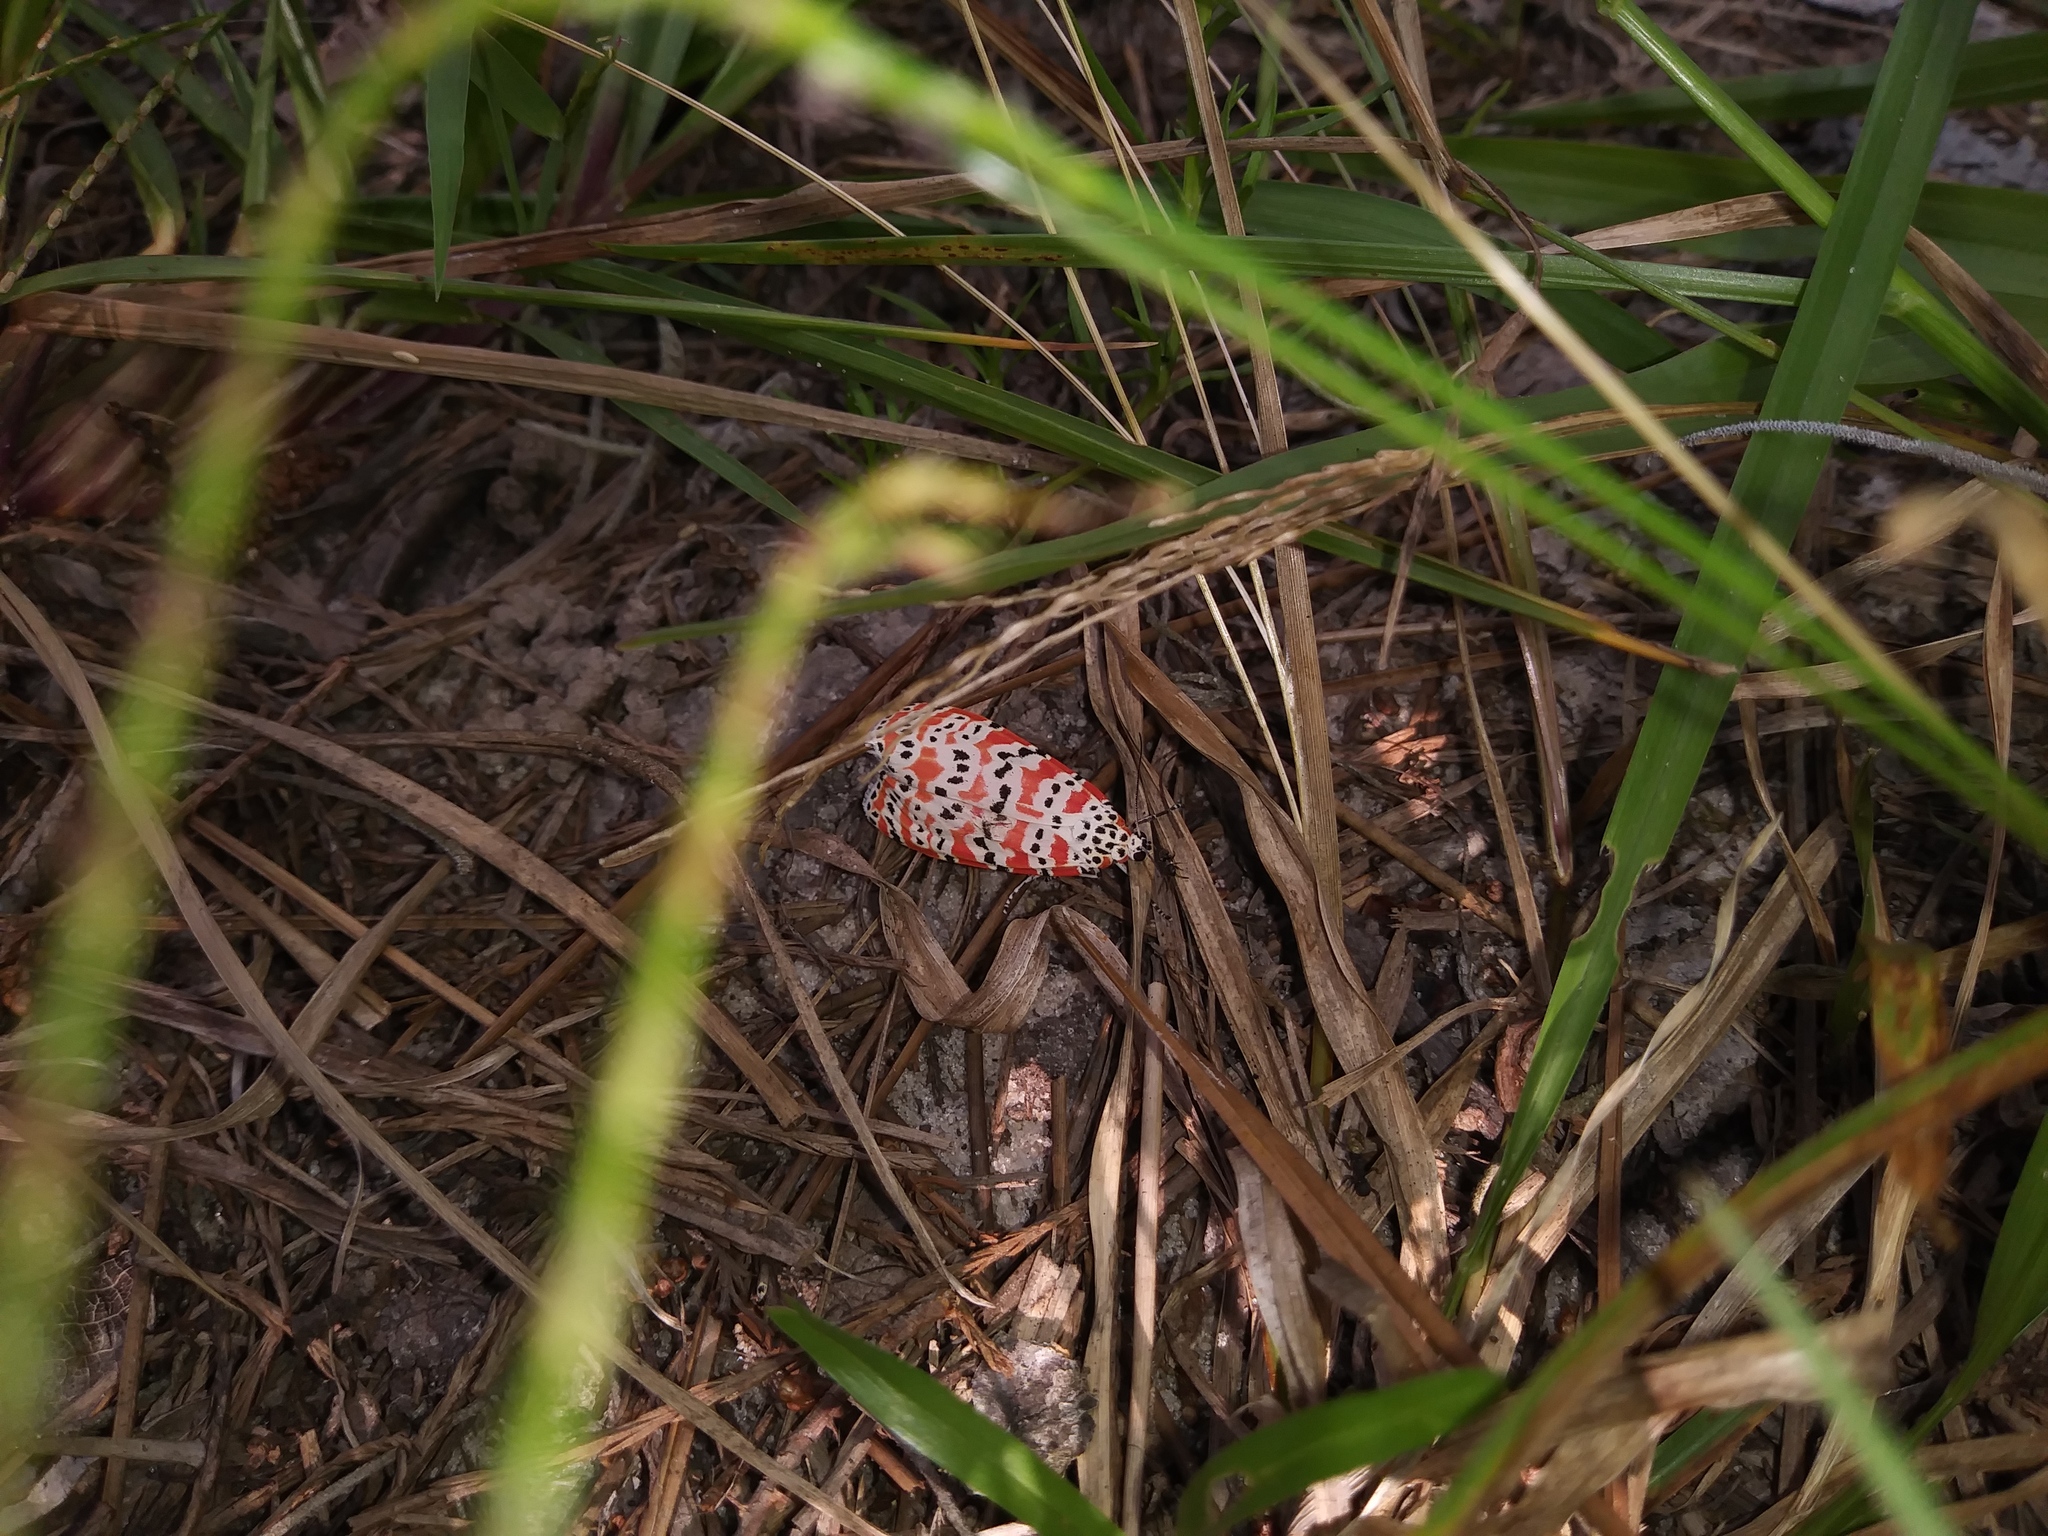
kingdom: Animalia
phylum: Arthropoda
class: Insecta
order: Lepidoptera
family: Erebidae
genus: Utetheisa
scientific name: Utetheisa ornatrix
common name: Beautiful utetheisa
